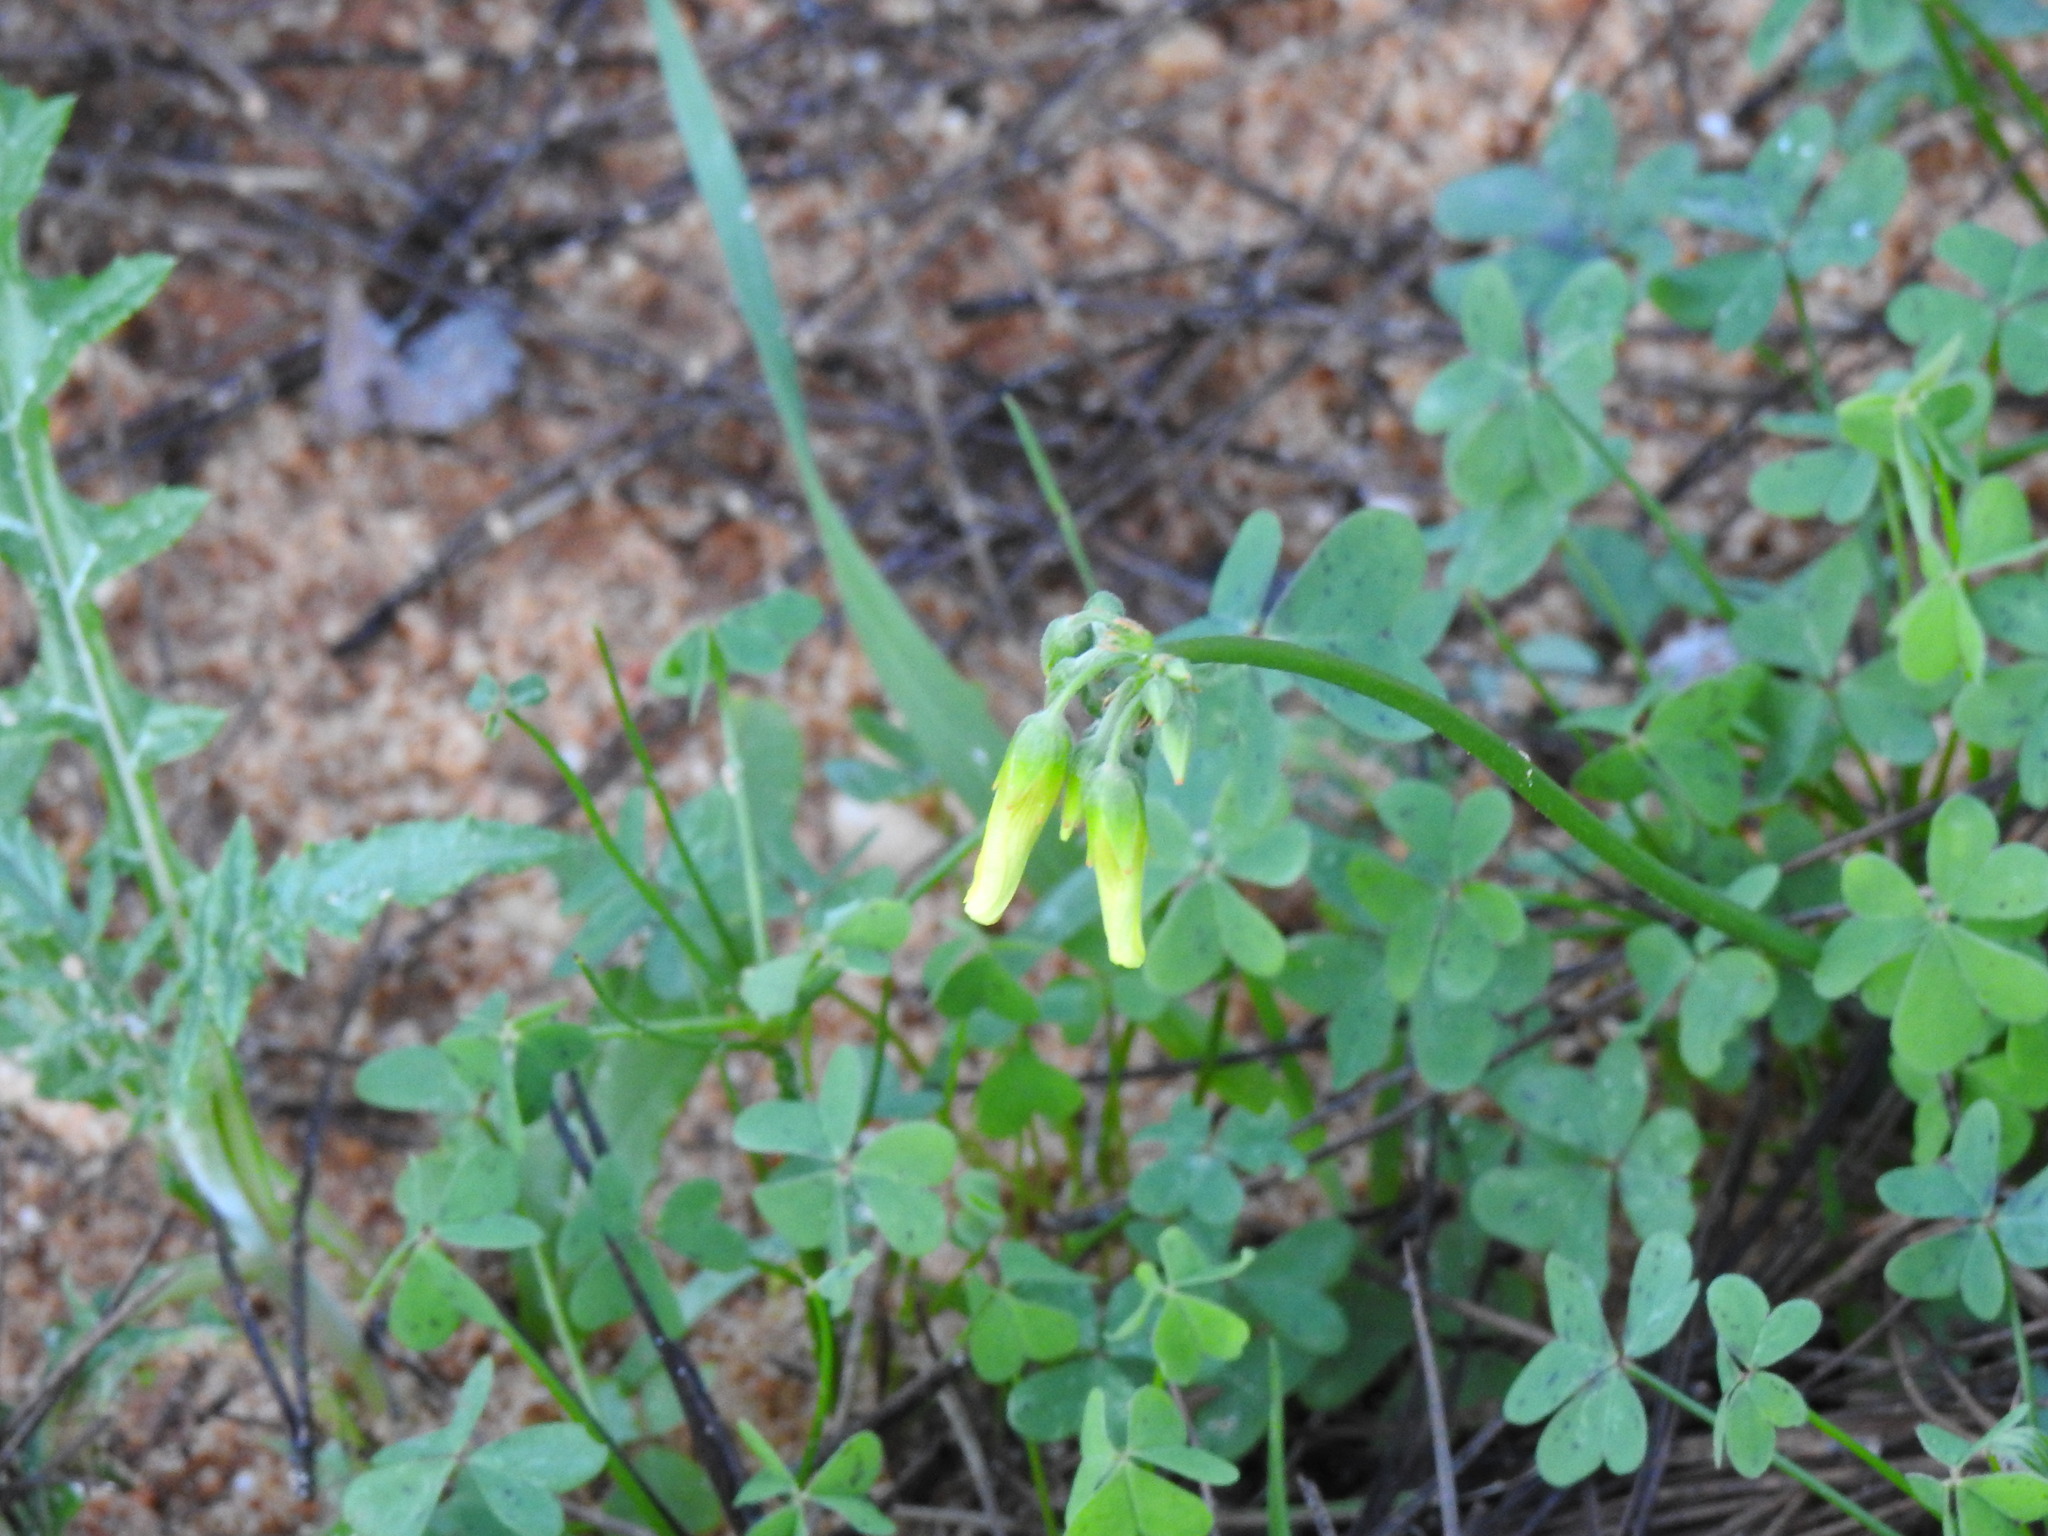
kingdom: Plantae
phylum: Tracheophyta
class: Magnoliopsida
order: Oxalidales
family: Oxalidaceae
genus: Oxalis
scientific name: Oxalis pes-caprae
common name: Bermuda-buttercup
